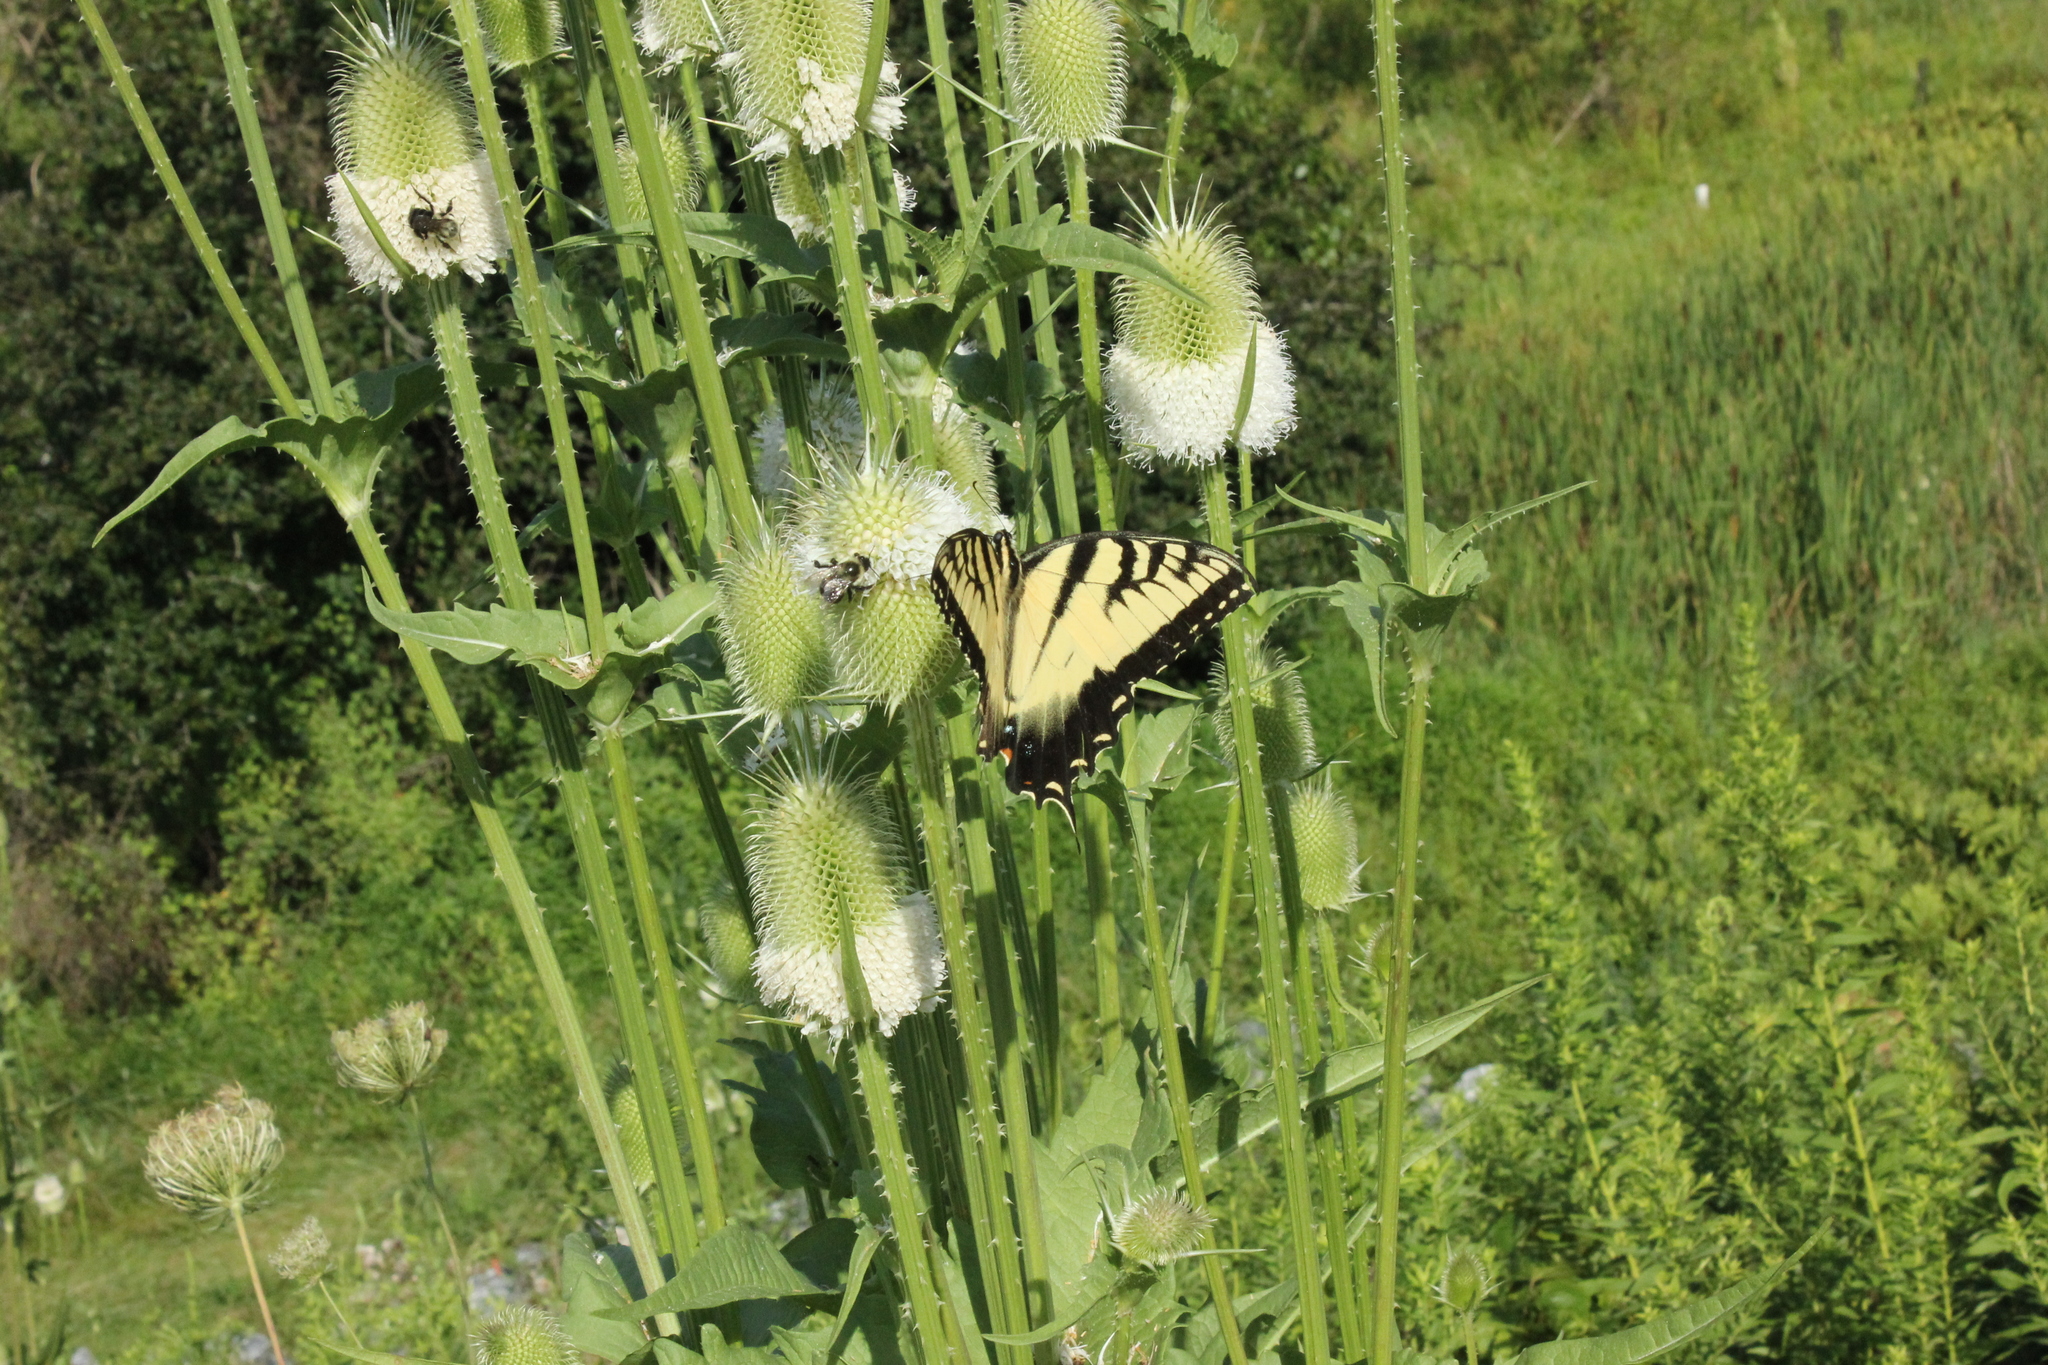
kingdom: Animalia
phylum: Arthropoda
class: Insecta
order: Lepidoptera
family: Papilionidae
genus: Papilio
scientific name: Papilio glaucus
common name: Tiger swallowtail
